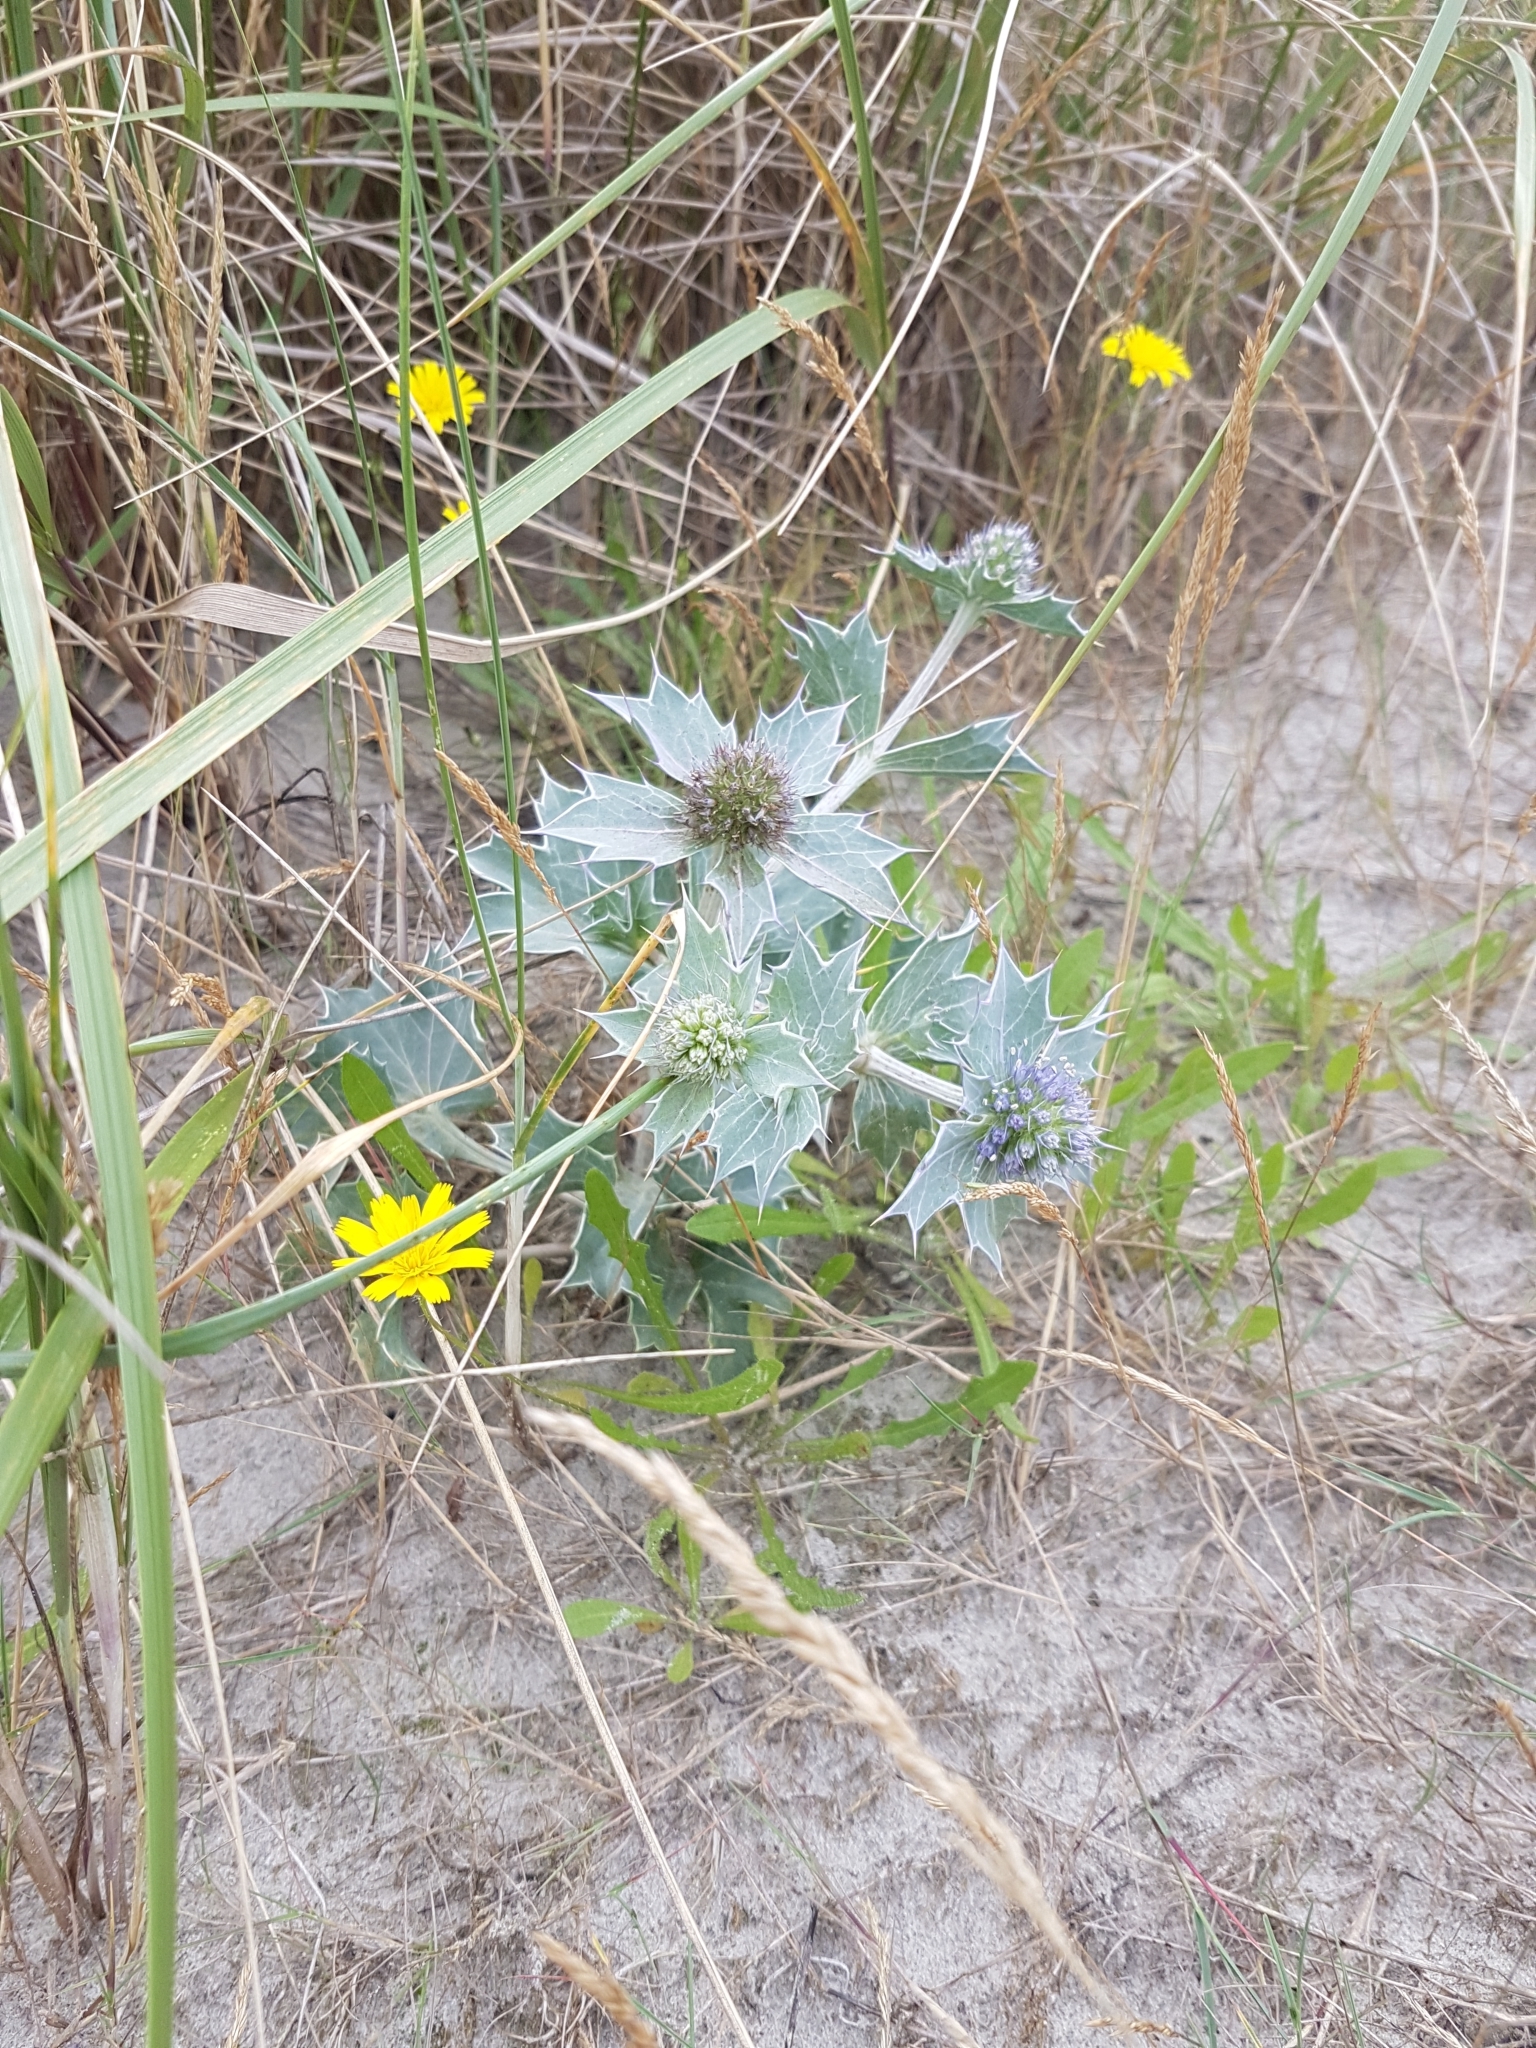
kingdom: Plantae
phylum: Tracheophyta
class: Magnoliopsida
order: Apiales
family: Apiaceae
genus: Eryngium
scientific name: Eryngium maritimum
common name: Sea-holly
